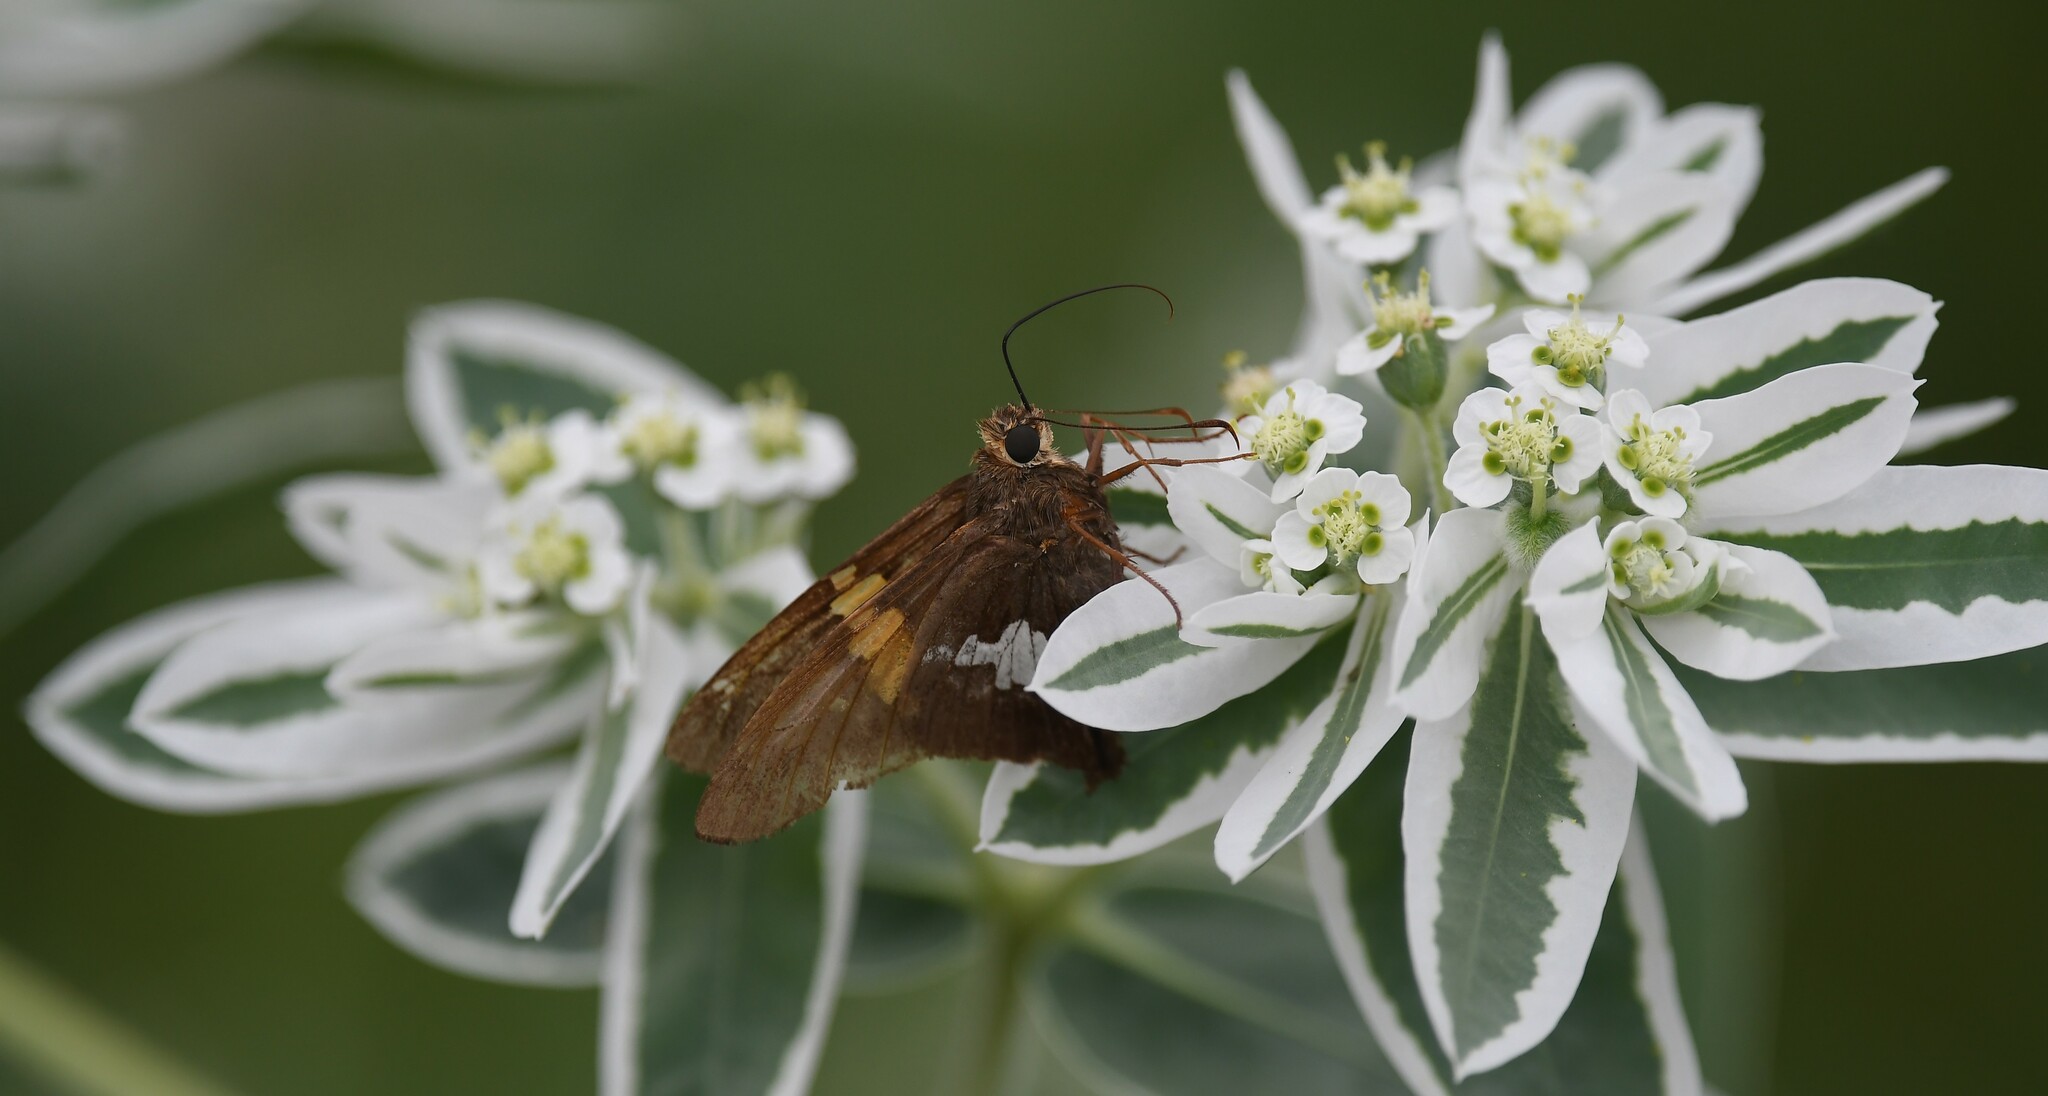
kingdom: Animalia
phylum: Arthropoda
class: Insecta
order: Lepidoptera
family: Hesperiidae
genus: Epargyreus
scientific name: Epargyreus clarus
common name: Silver-spotted skipper
